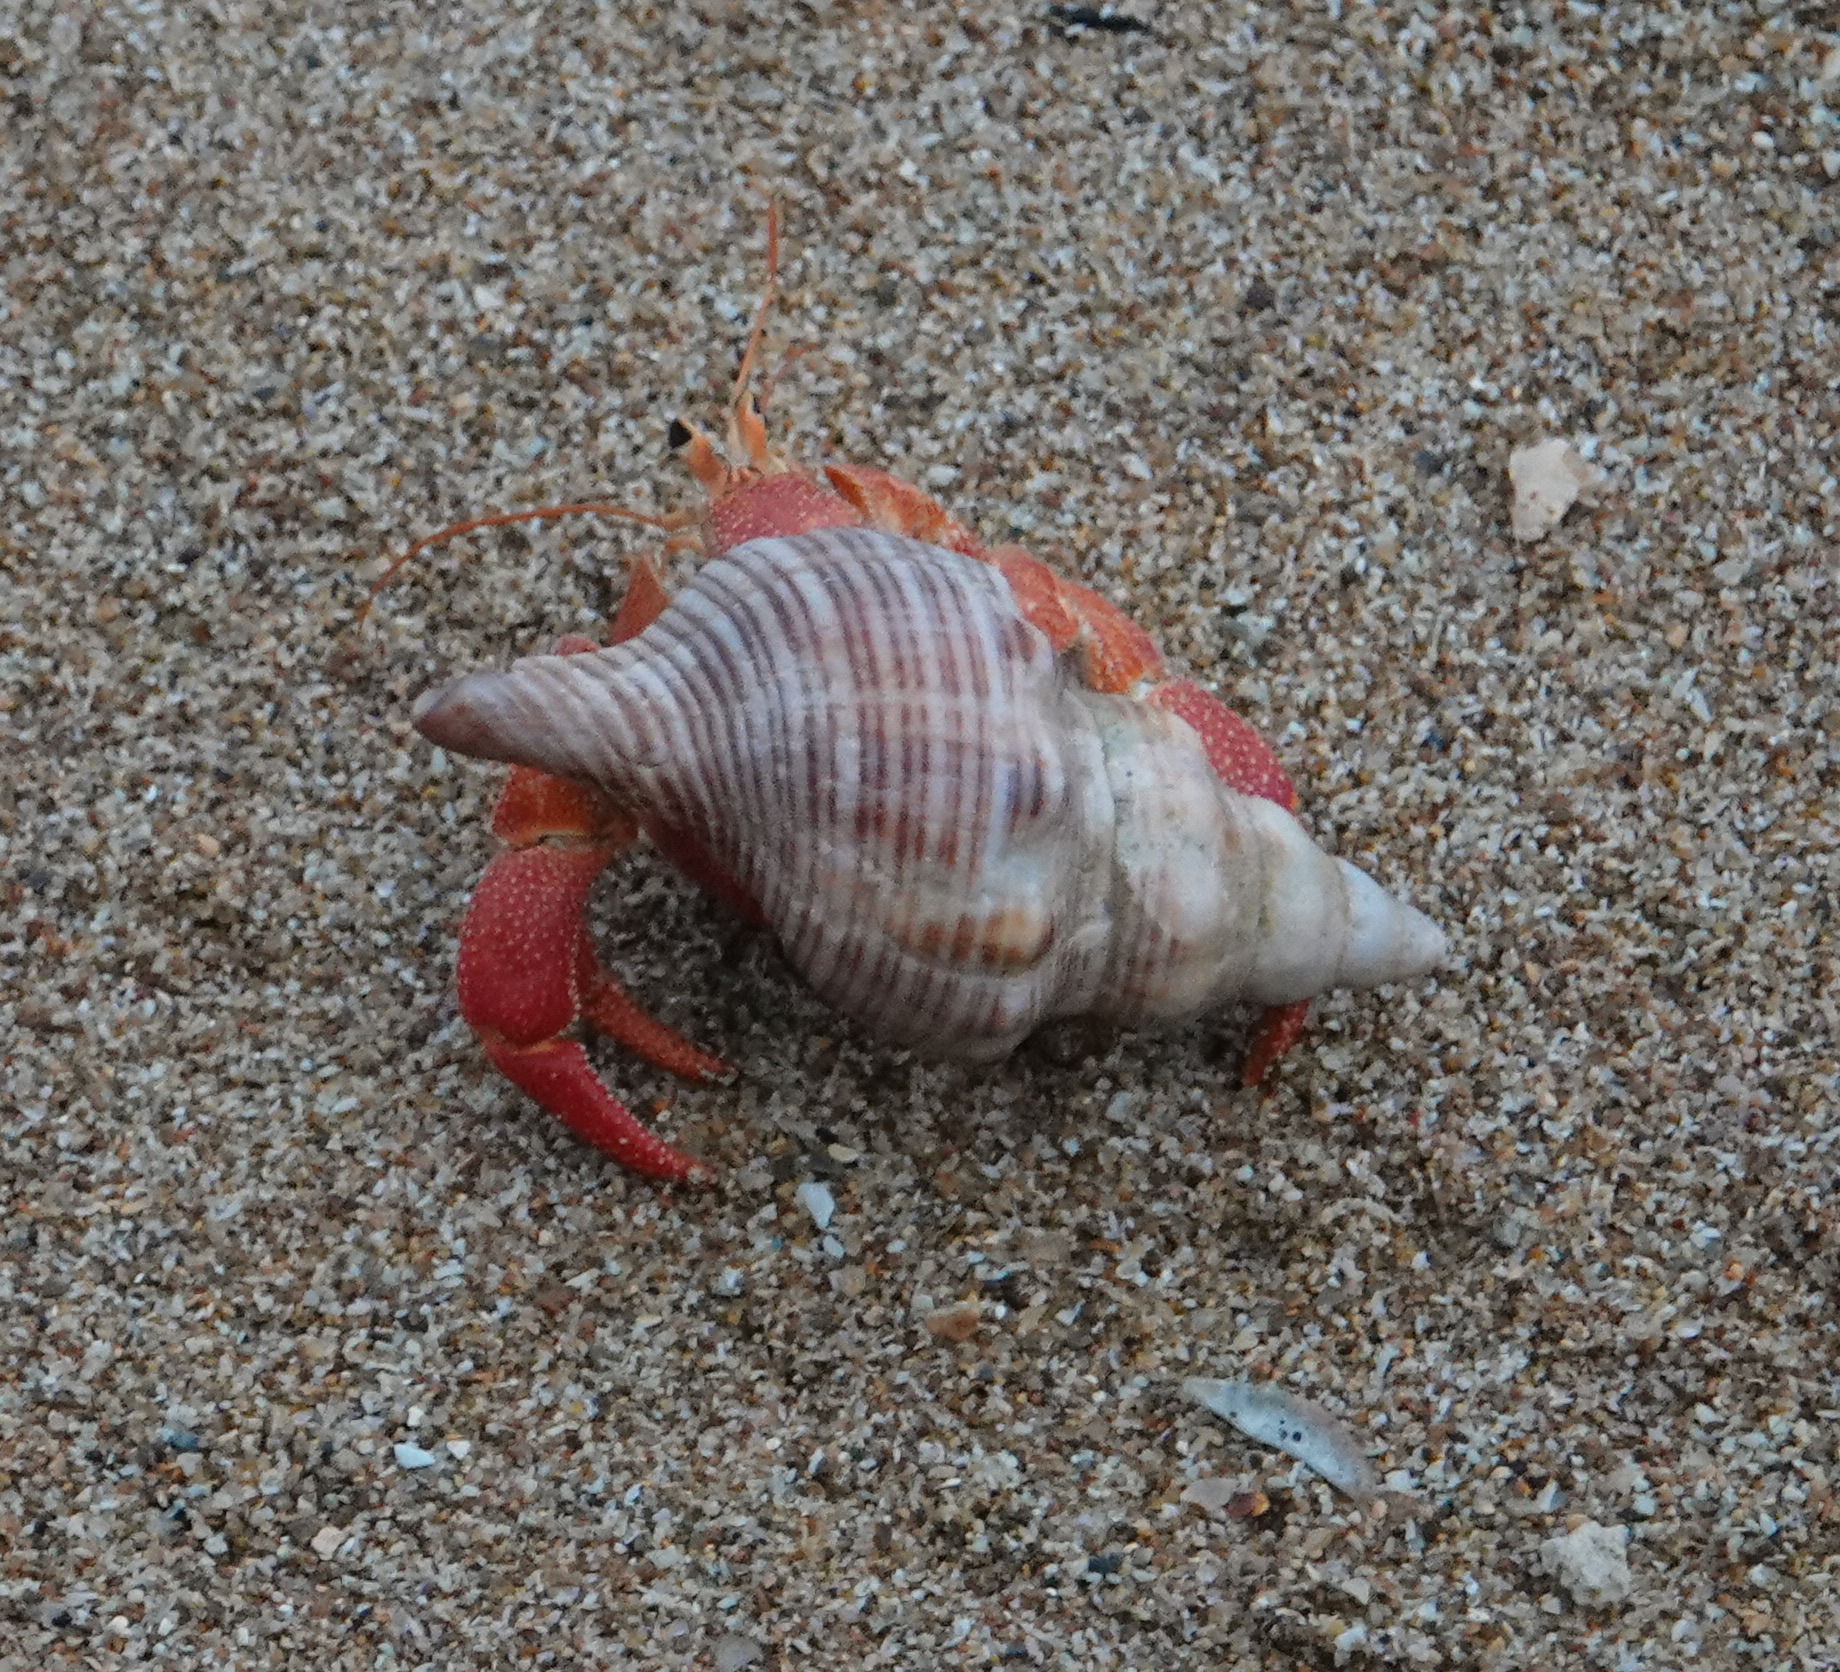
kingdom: Animalia
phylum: Arthropoda
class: Malacostraca
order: Decapoda
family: Coenobitidae
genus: Coenobita
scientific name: Coenobita perlatus
